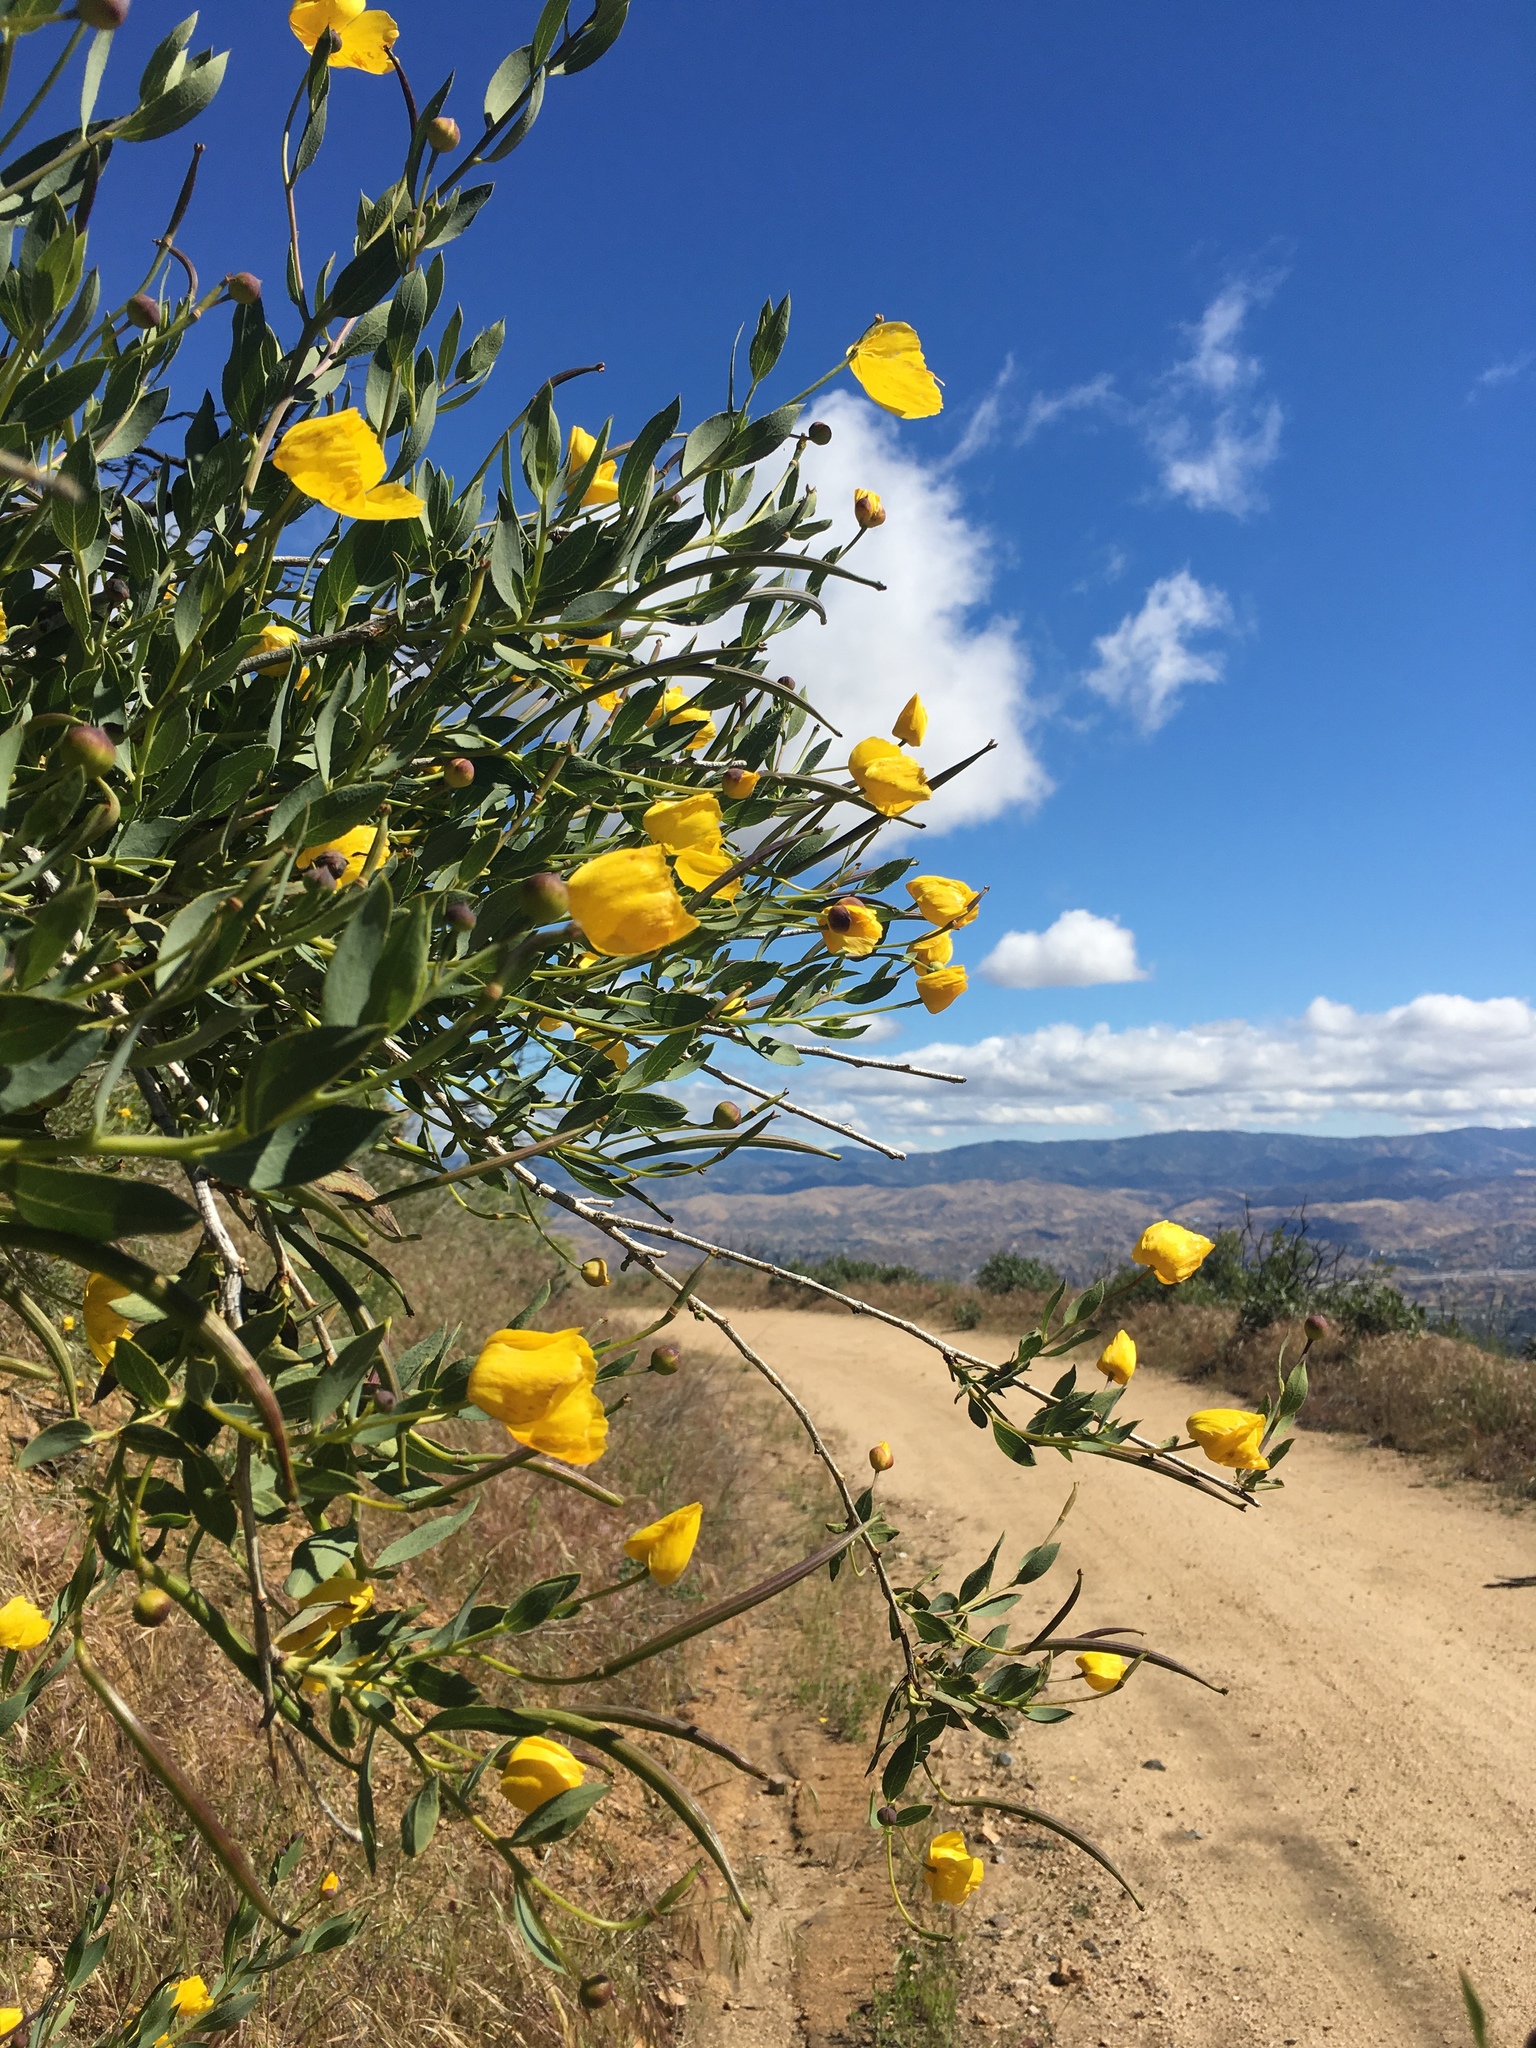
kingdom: Plantae
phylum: Tracheophyta
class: Magnoliopsida
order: Ranunculales
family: Papaveraceae
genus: Dendromecon
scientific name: Dendromecon rigida
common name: Tree poppy
